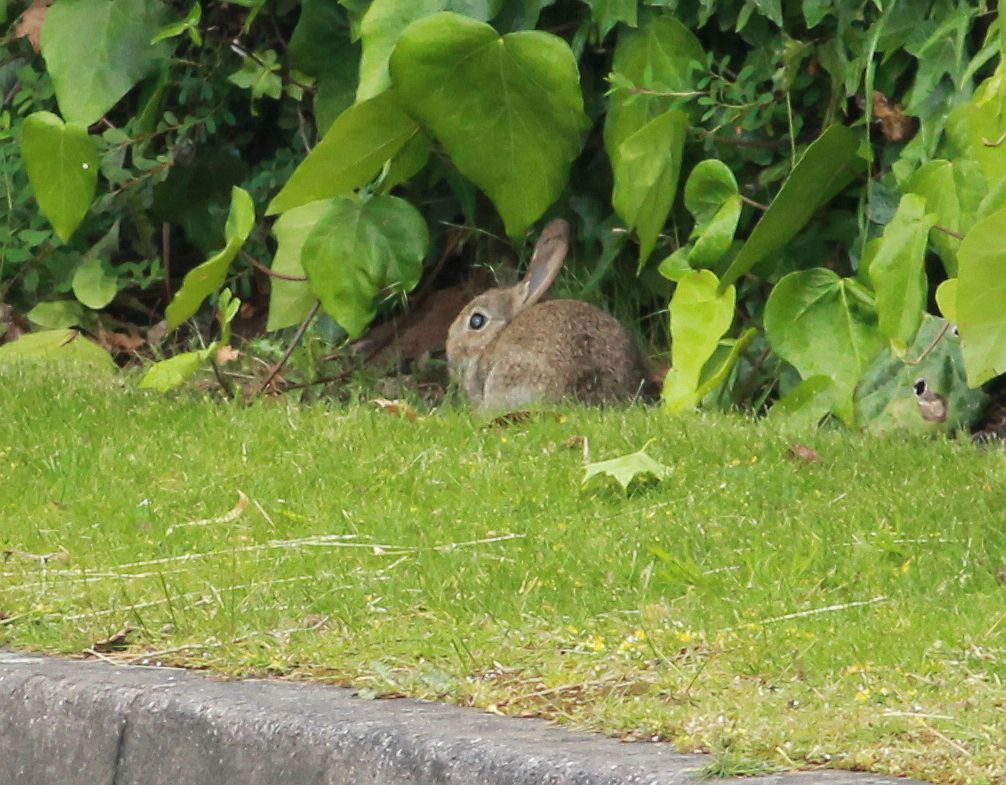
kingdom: Animalia
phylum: Chordata
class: Mammalia
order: Lagomorpha
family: Leporidae
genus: Oryctolagus
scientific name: Oryctolagus cuniculus
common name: European rabbit
